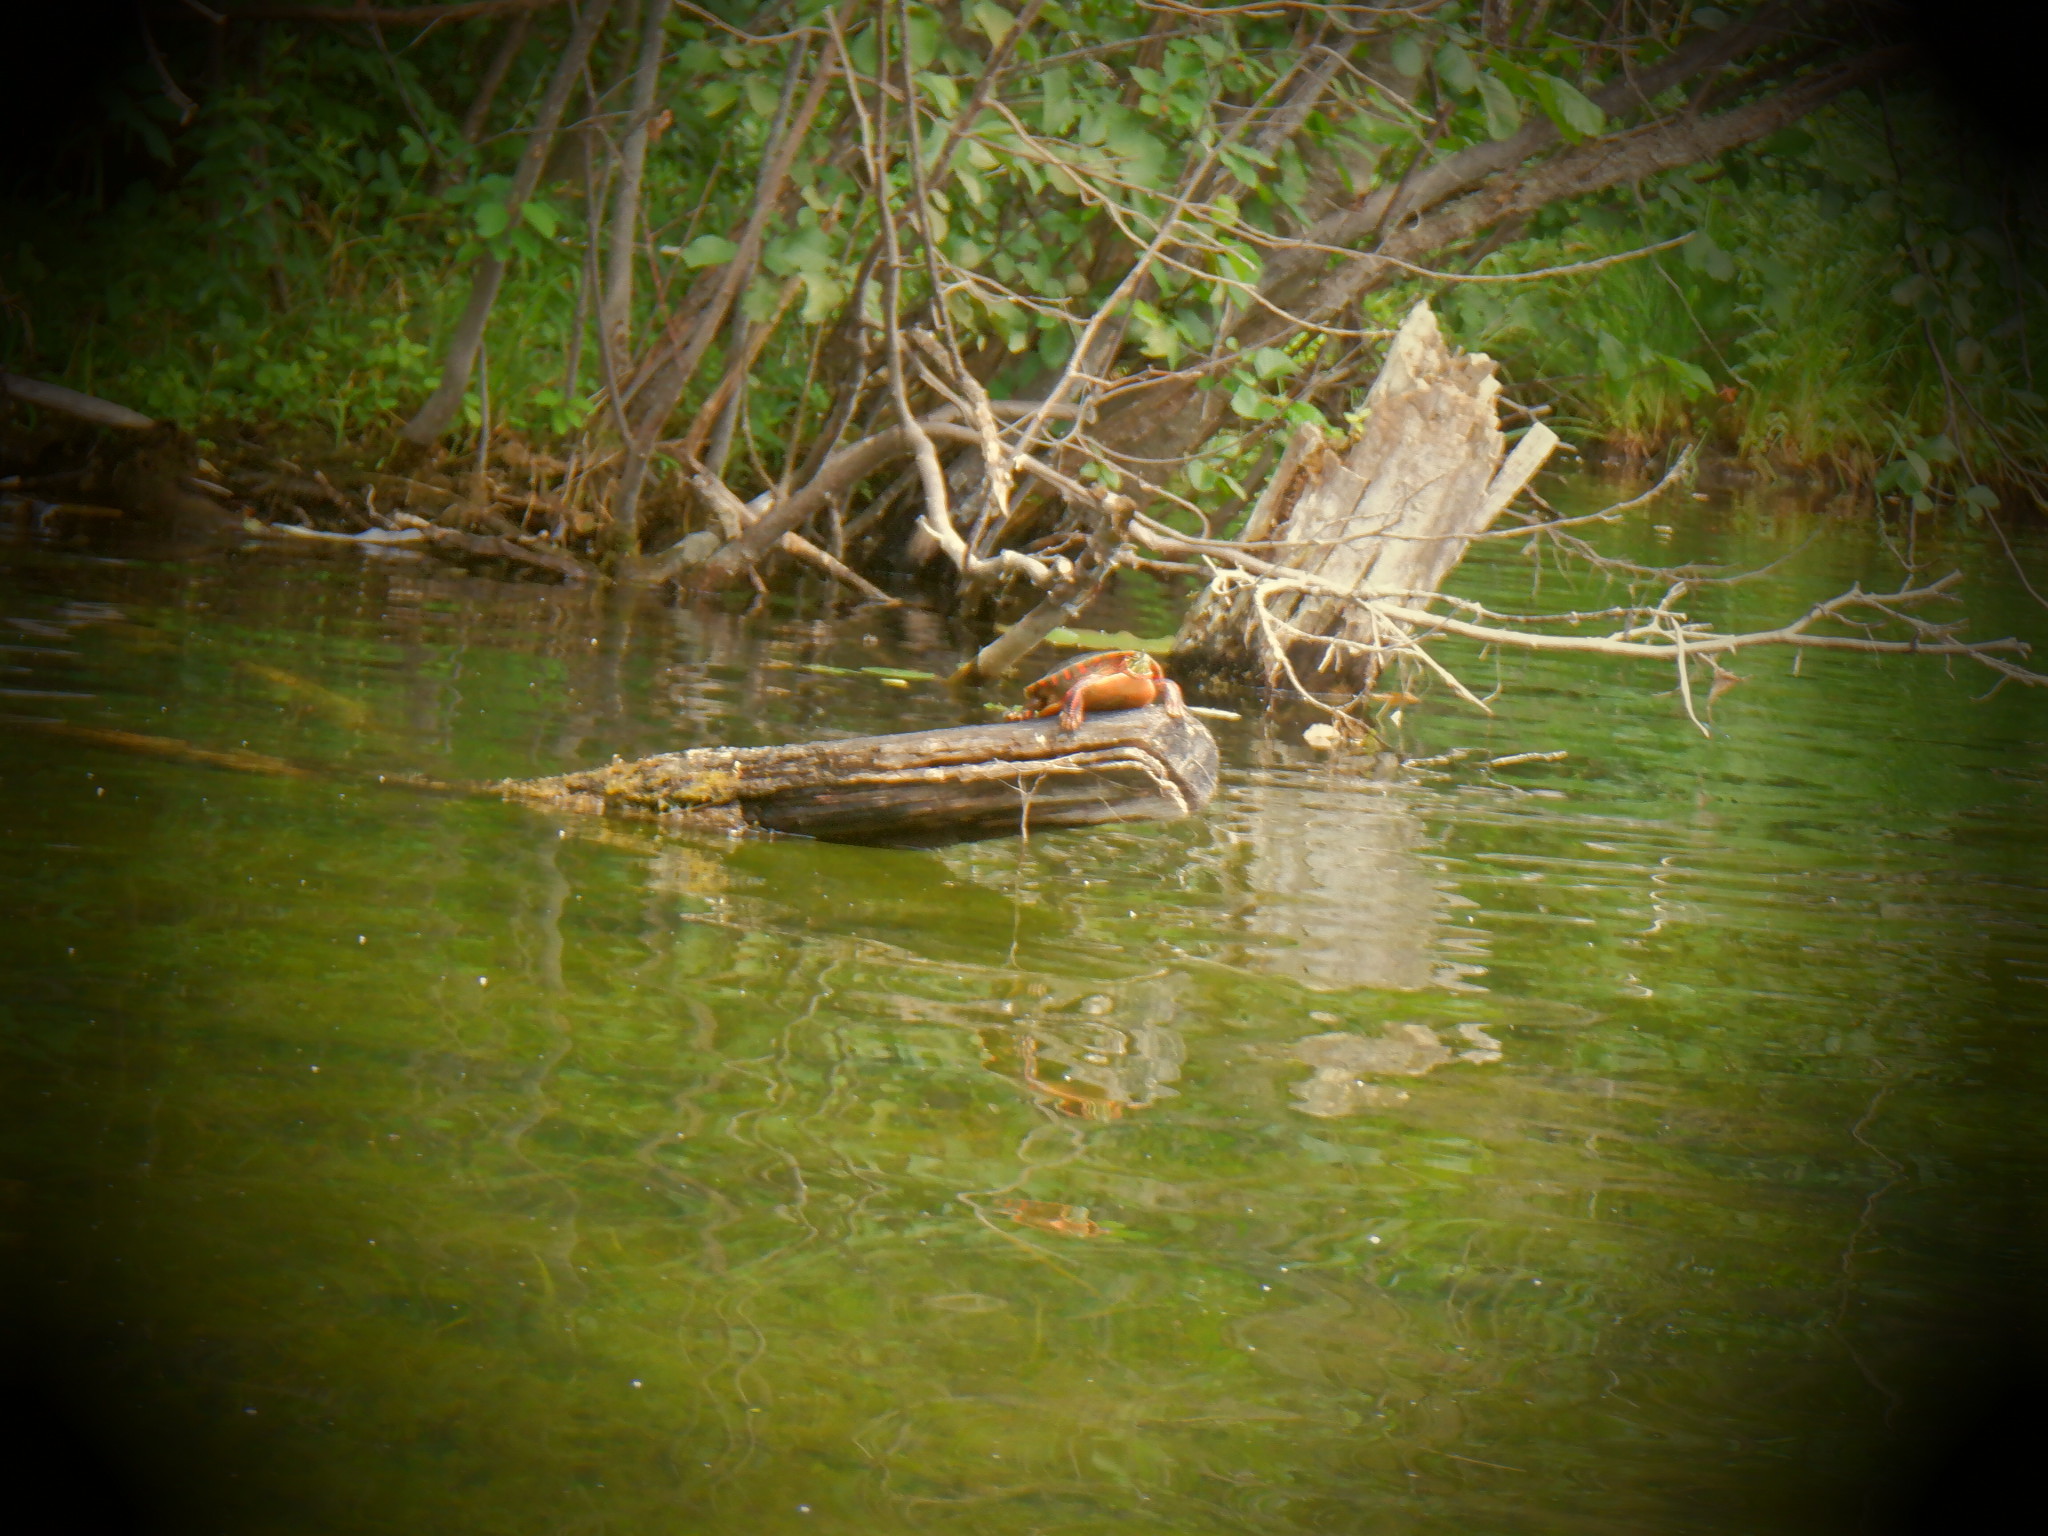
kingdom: Animalia
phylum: Chordata
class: Testudines
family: Emydidae
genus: Chrysemys
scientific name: Chrysemys picta
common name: Painted turtle
